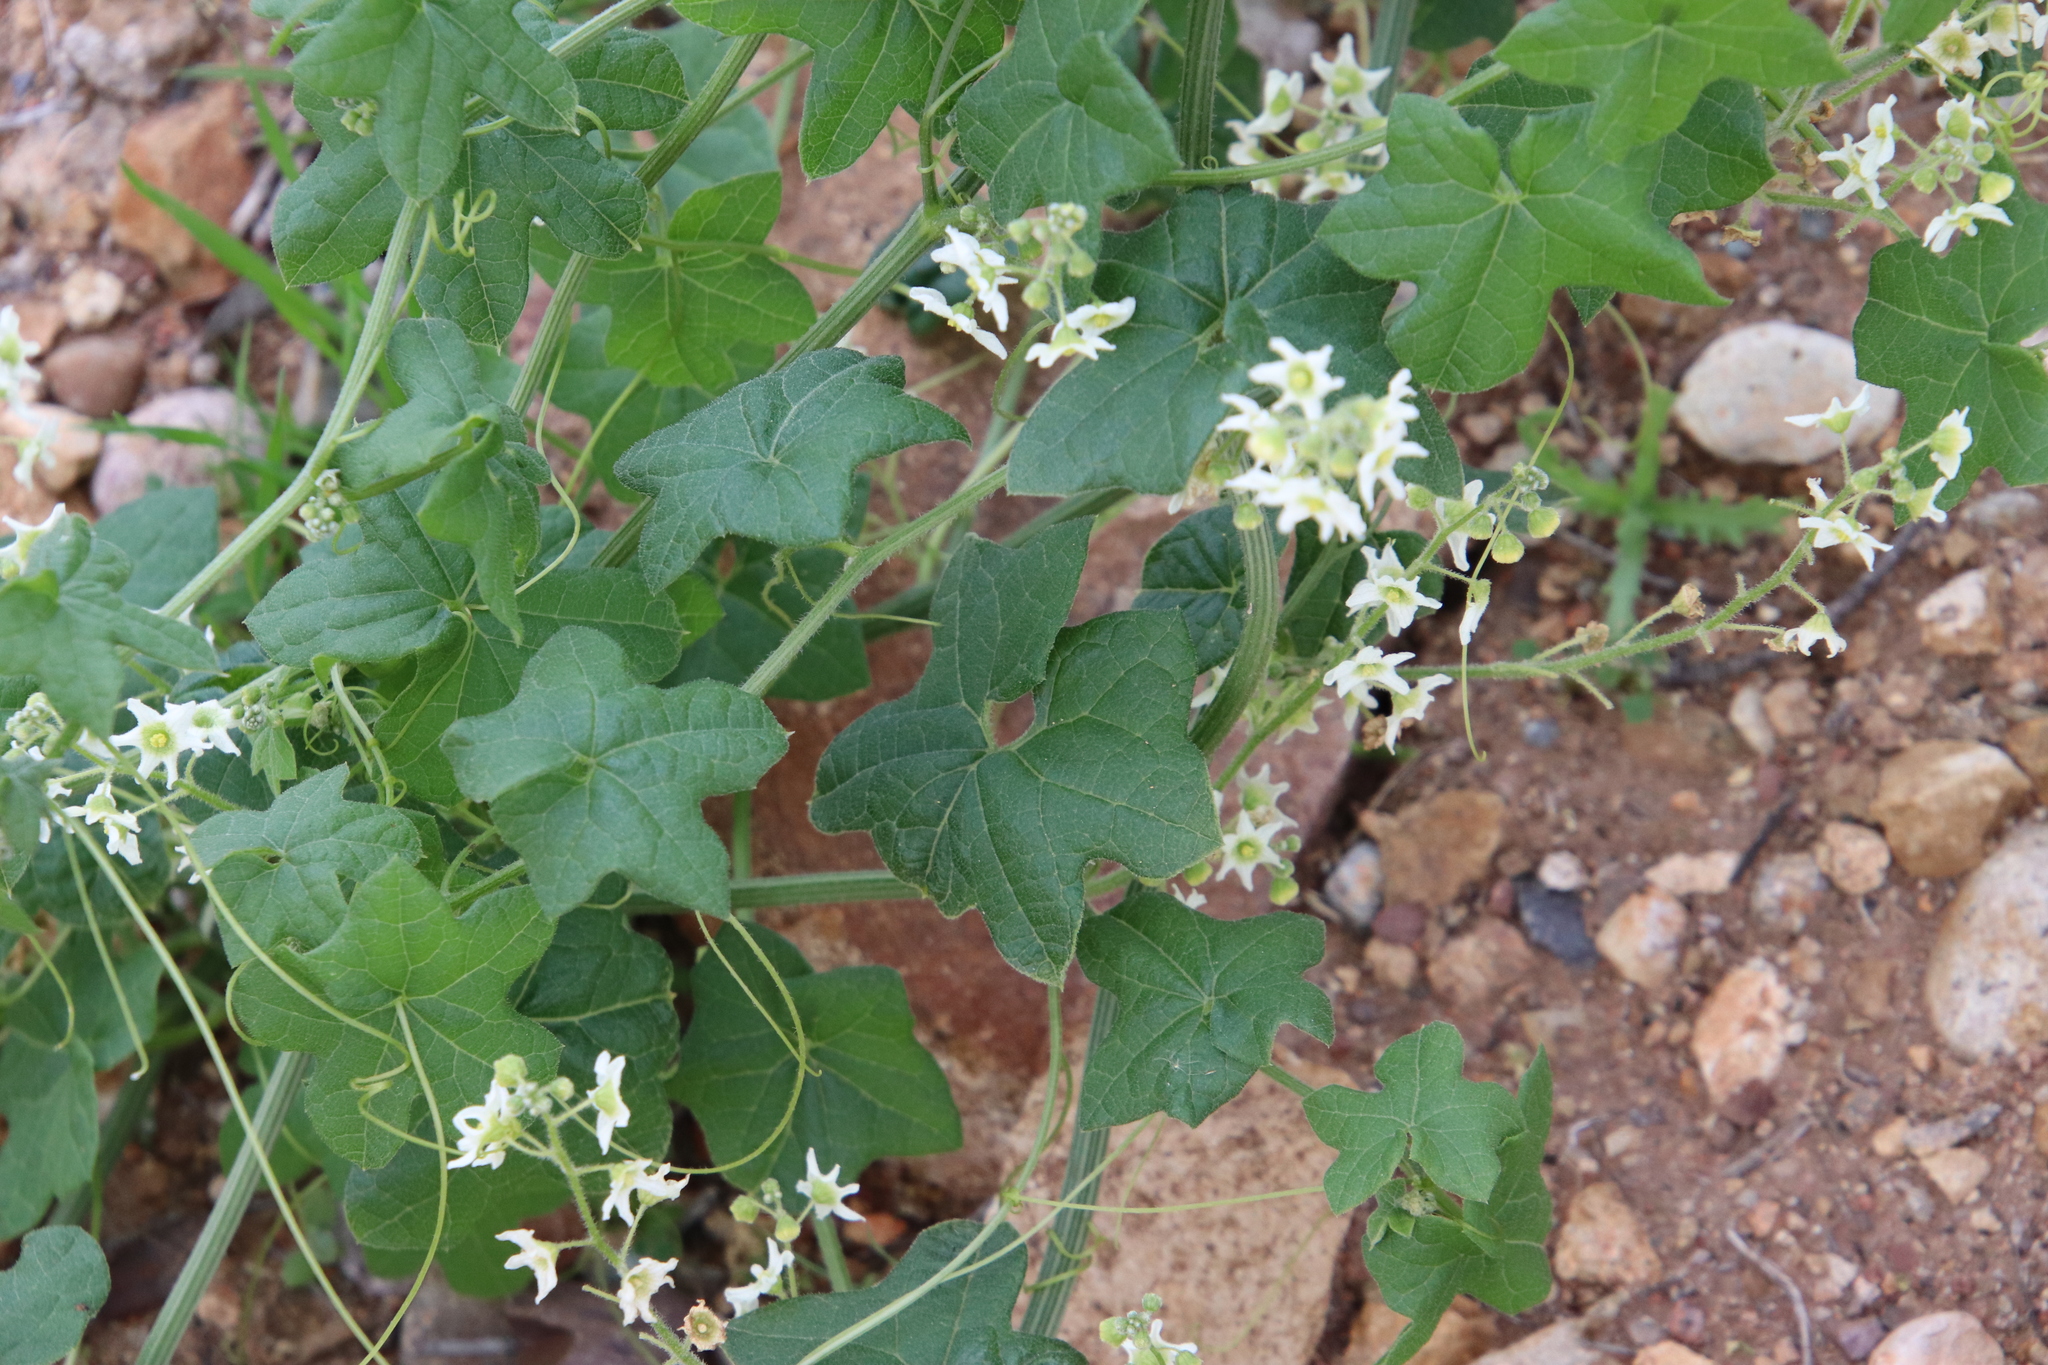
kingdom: Plantae
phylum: Tracheophyta
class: Magnoliopsida
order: Cucurbitales
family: Cucurbitaceae
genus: Marah
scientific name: Marah macrocarpa
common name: Cucamonga manroot
